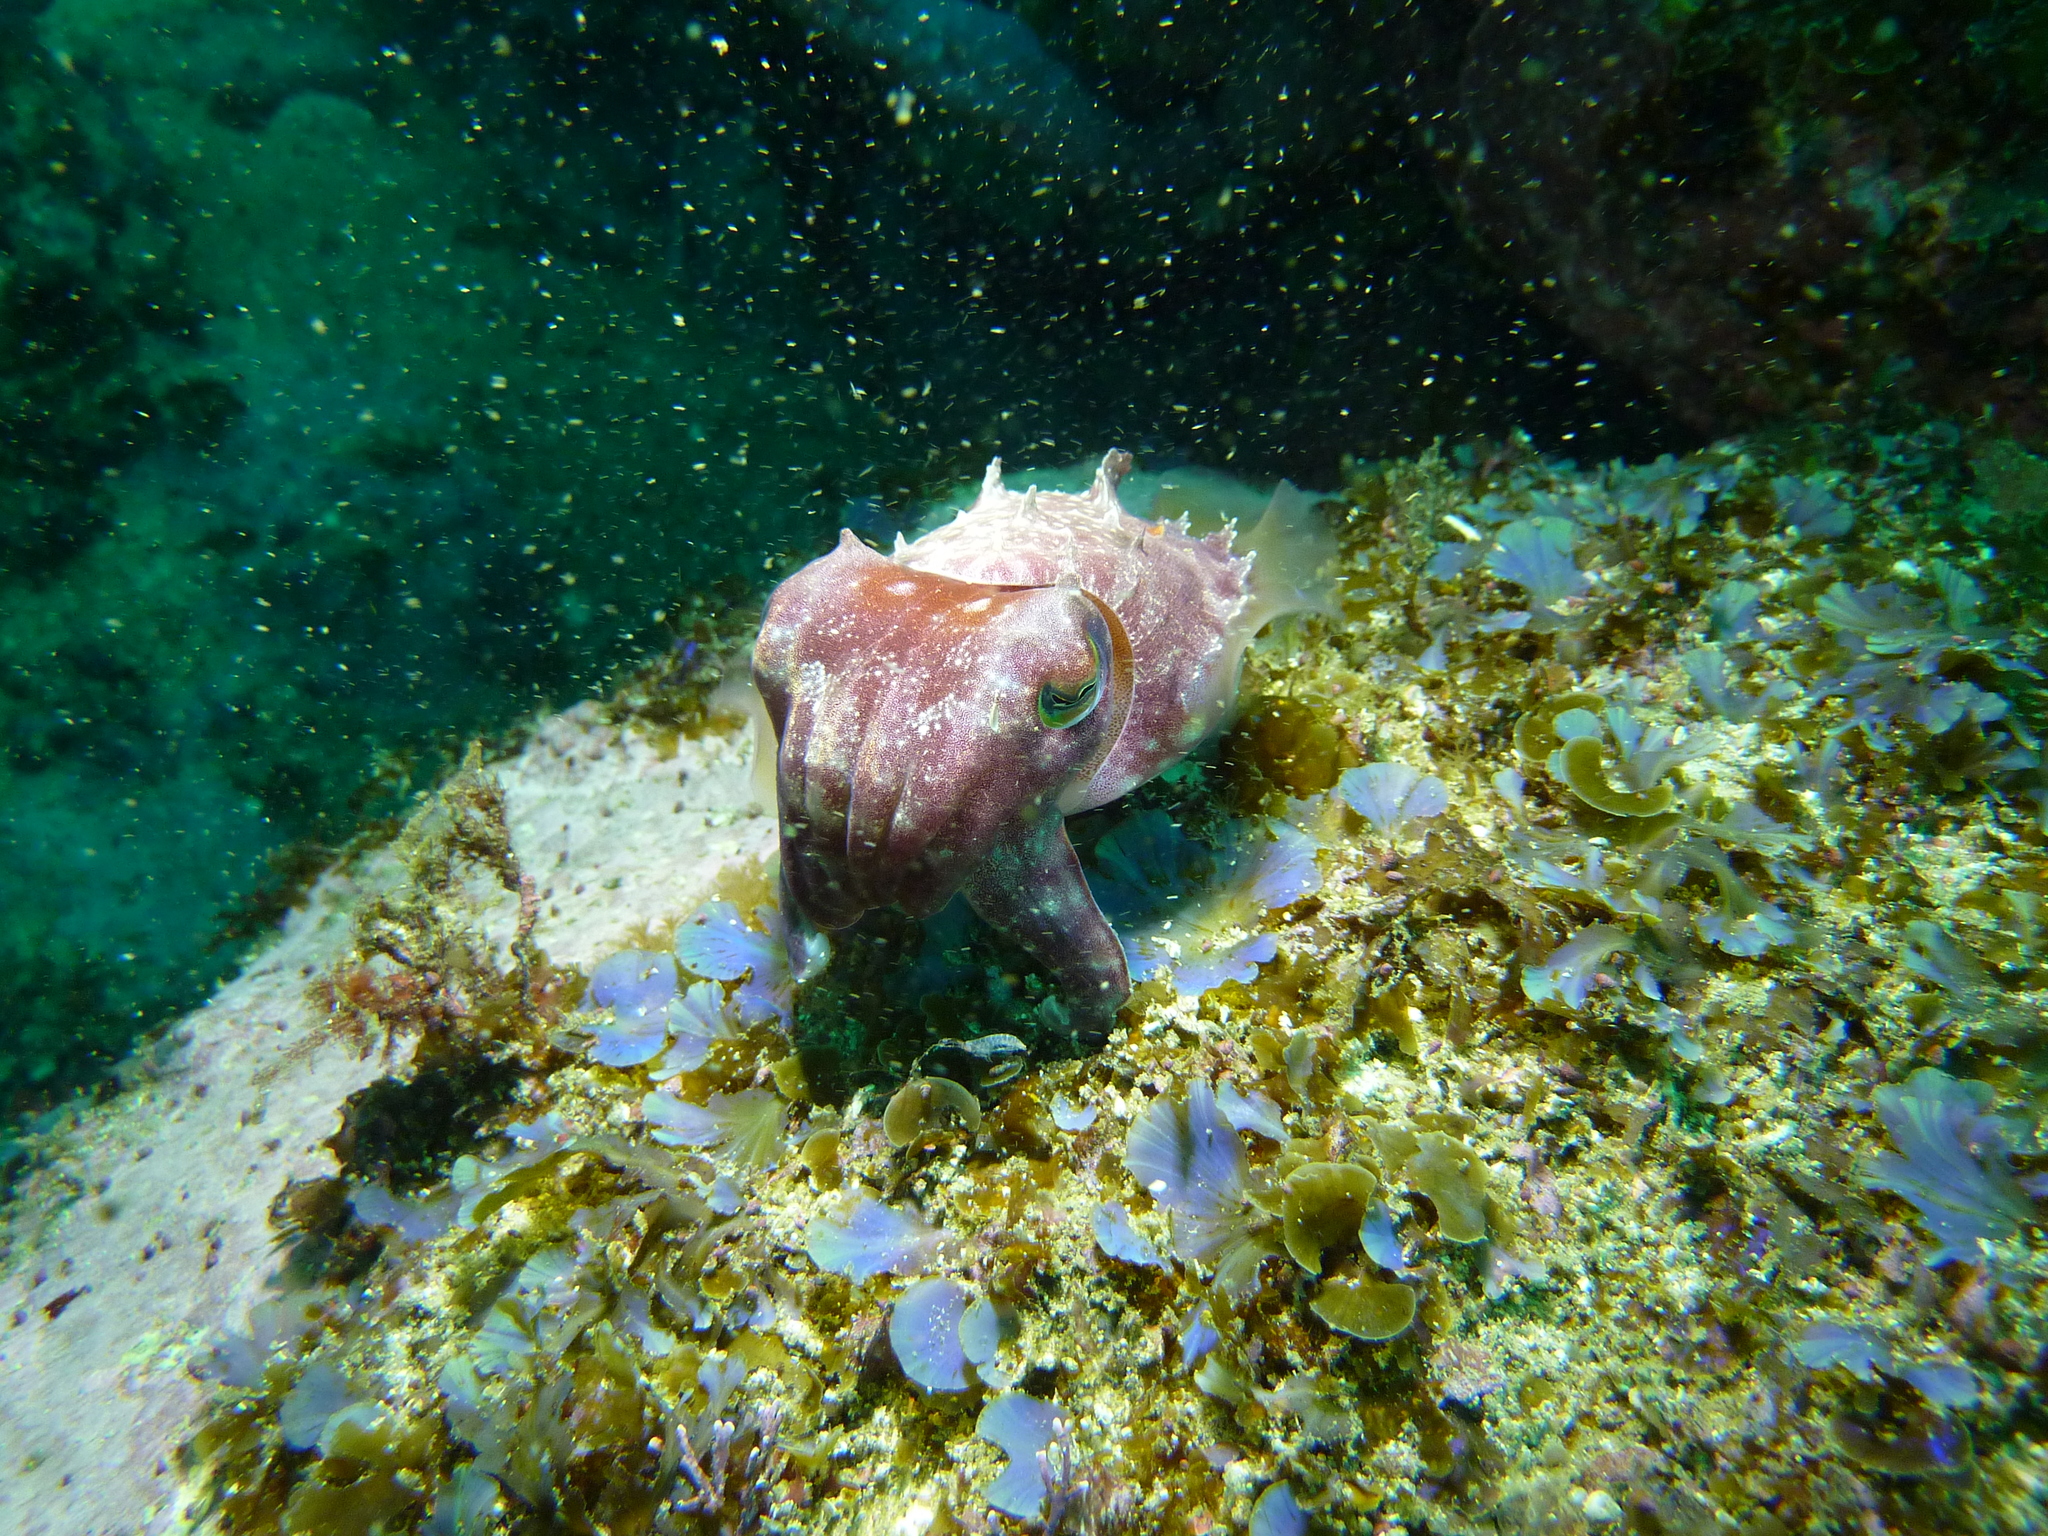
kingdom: Animalia
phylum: Mollusca
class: Cephalopoda
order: Sepiida
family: Sepiidae
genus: Sepia
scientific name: Sepia grahami
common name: Ken's cuttlefish
